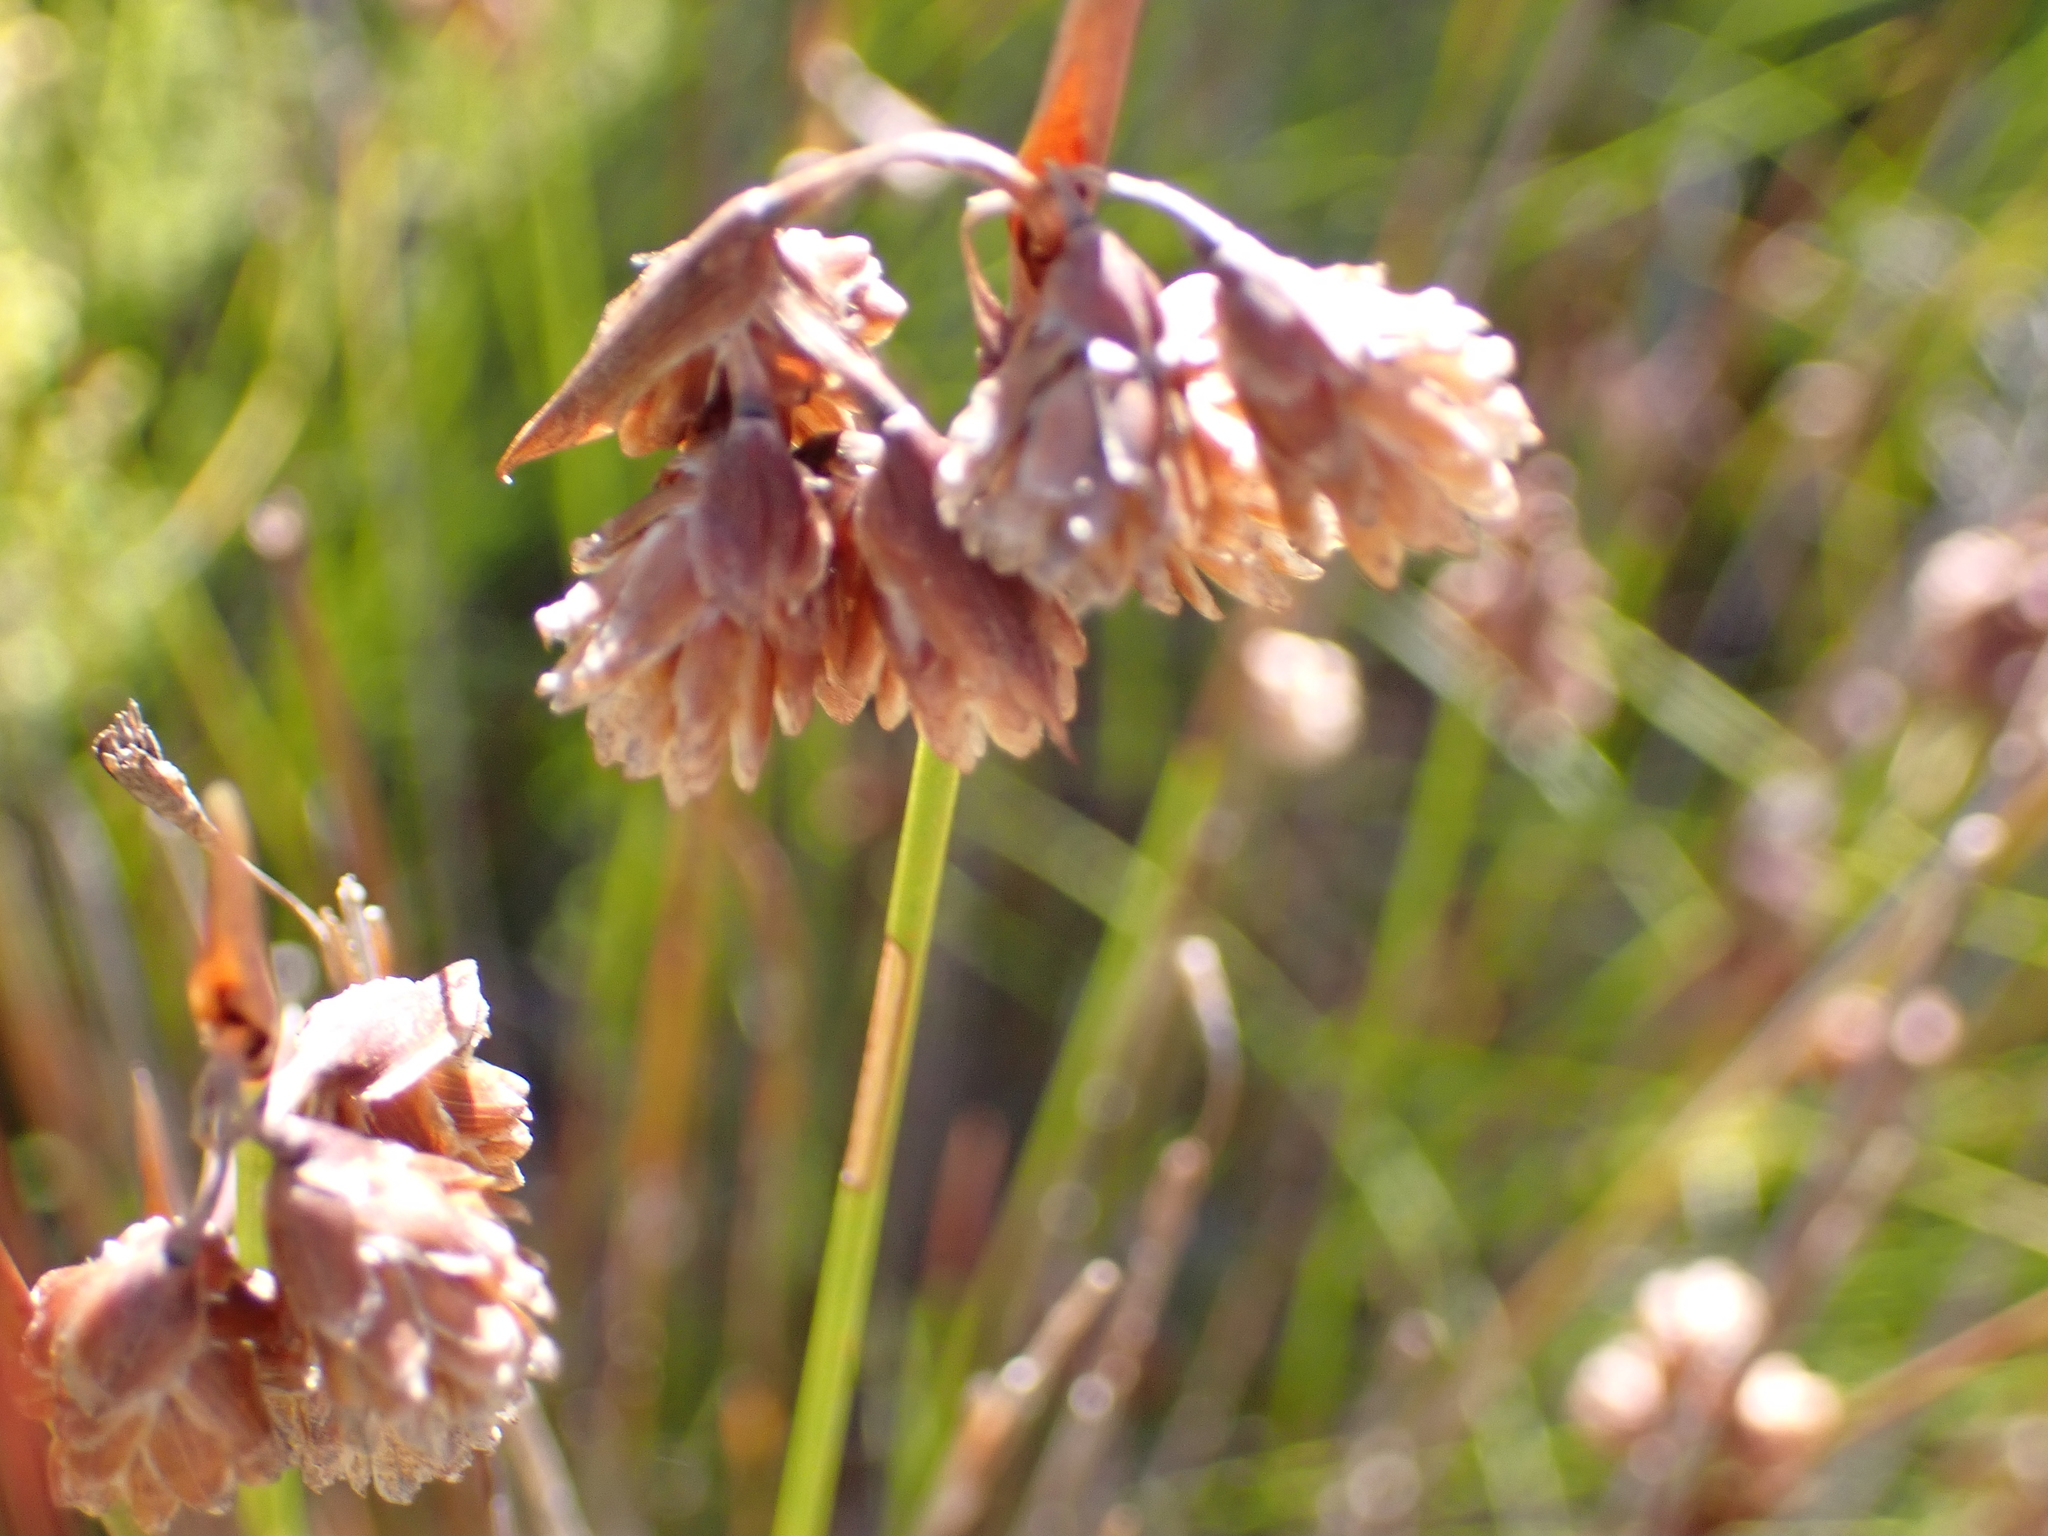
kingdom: Plantae
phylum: Tracheophyta
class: Liliopsida
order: Poales
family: Restionaceae
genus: Staberoha
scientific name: Staberoha cernua
